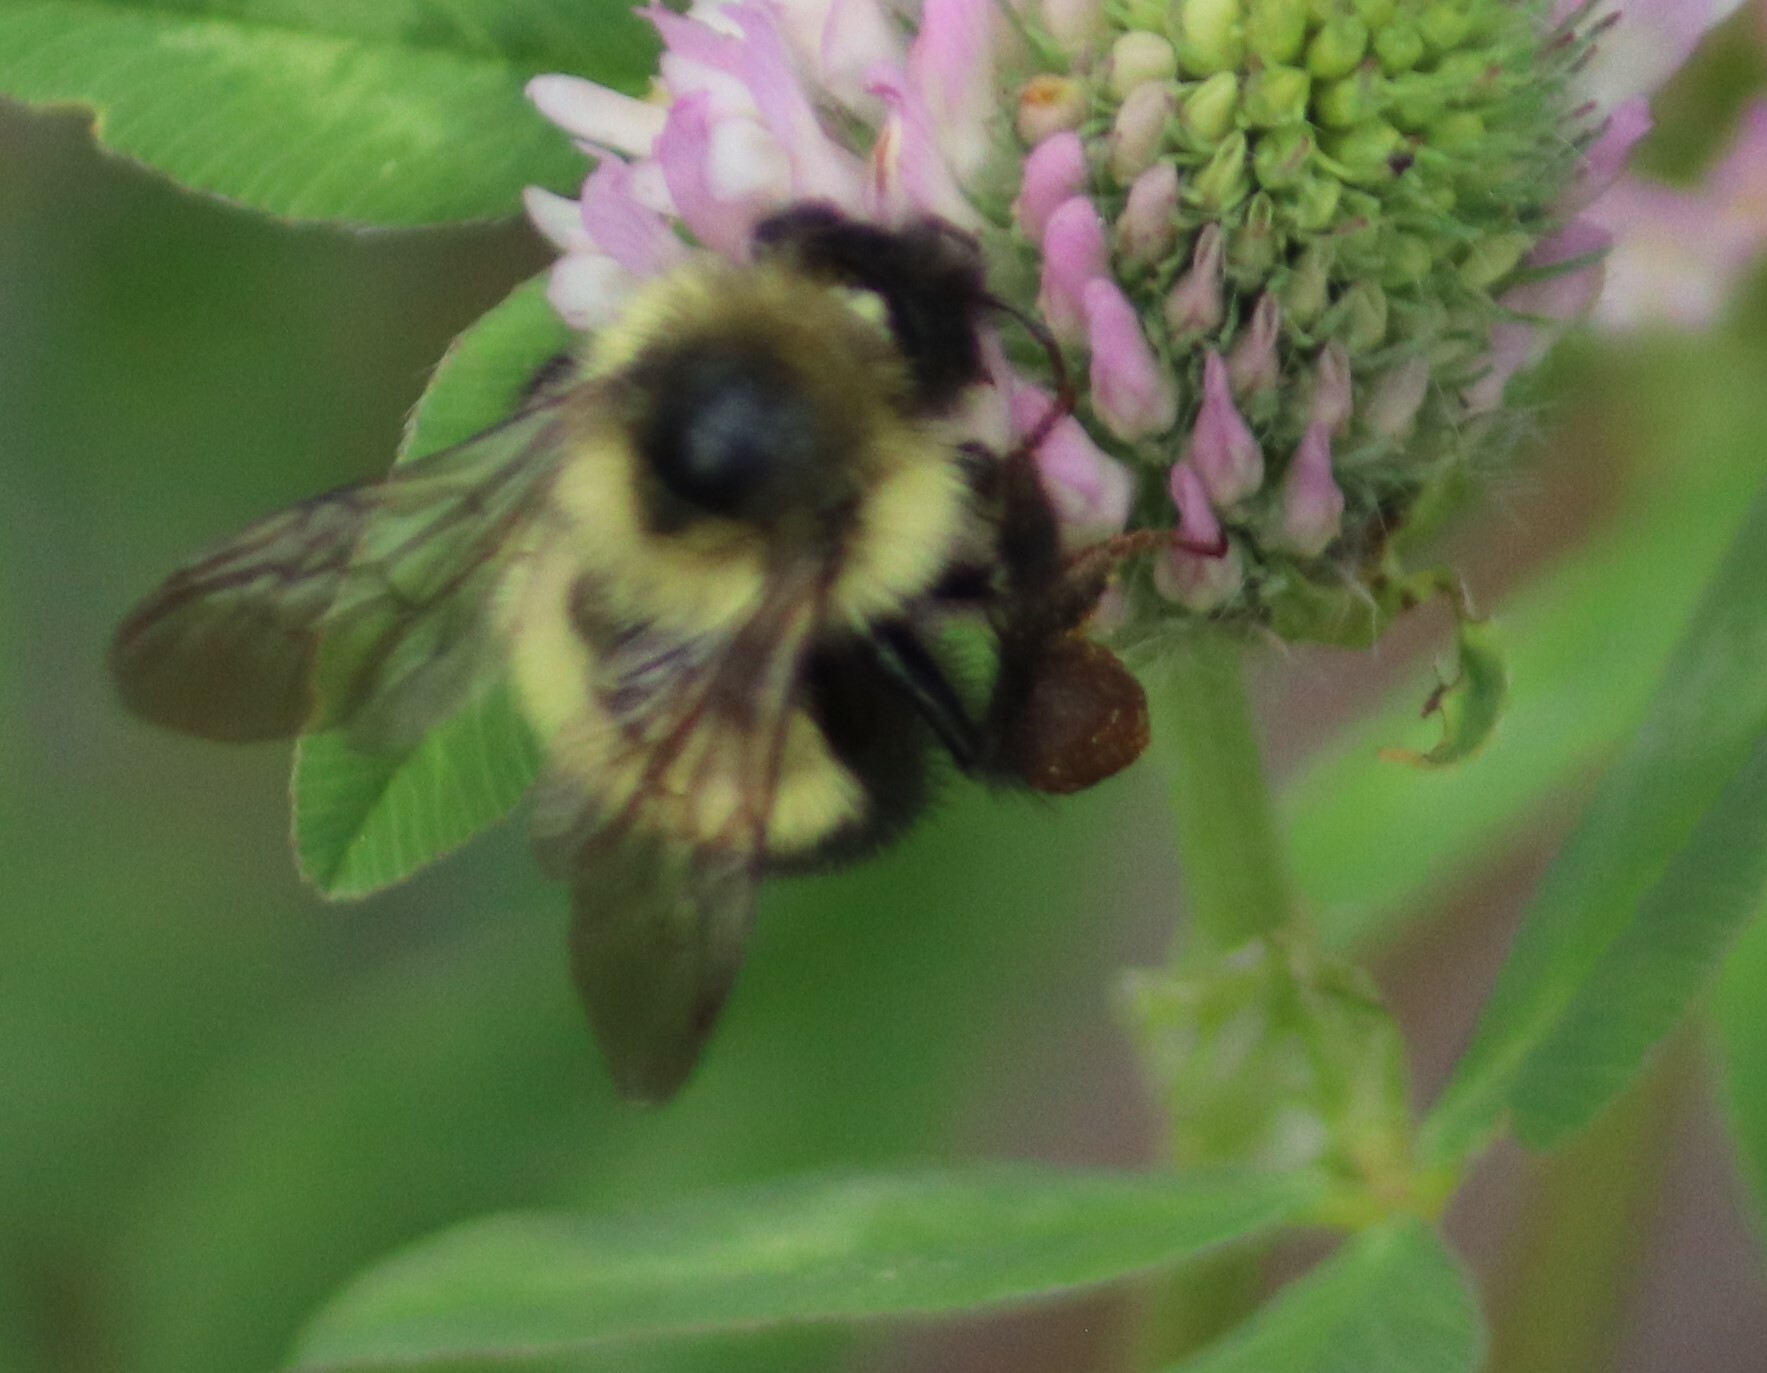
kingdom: Animalia
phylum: Arthropoda
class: Insecta
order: Hymenoptera
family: Apidae
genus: Bombus
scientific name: Bombus vagans
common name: Half-black bumble bee
